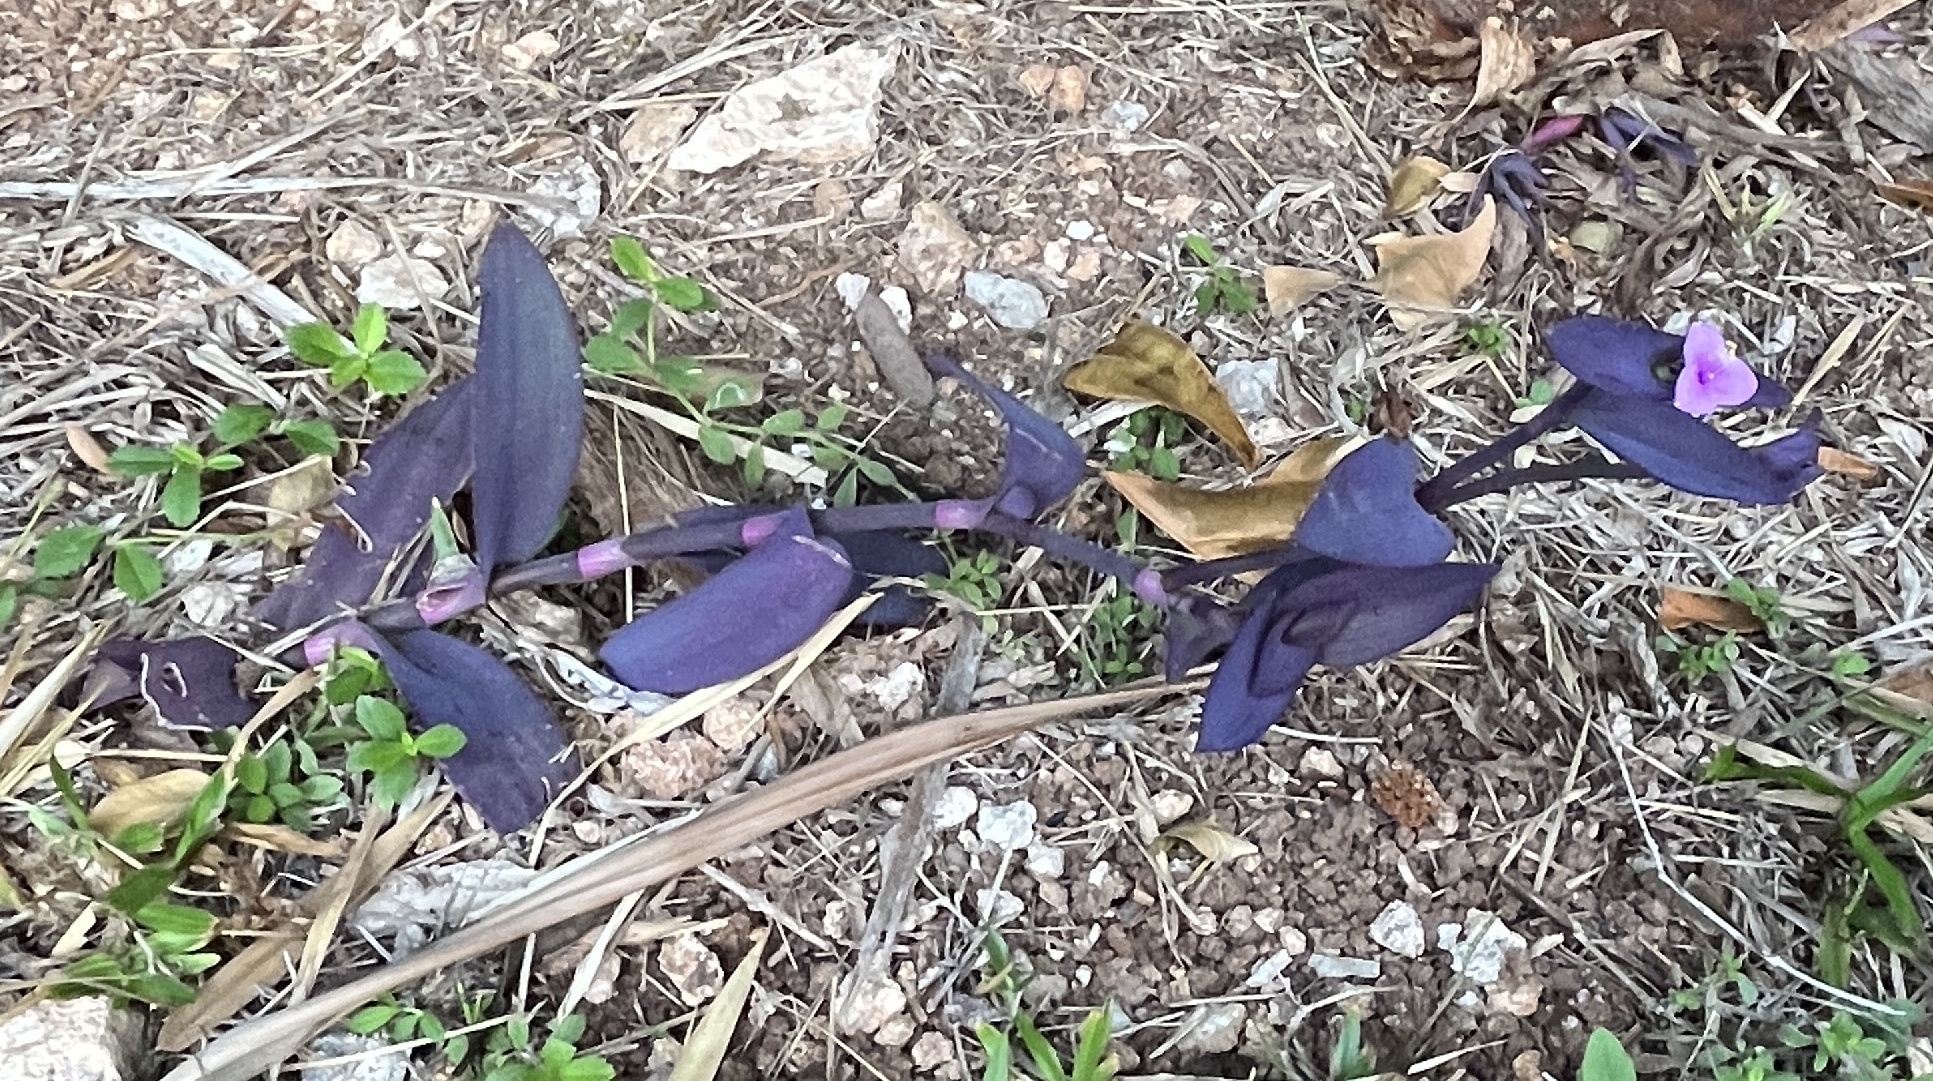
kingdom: Plantae
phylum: Tracheophyta
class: Liliopsida
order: Commelinales
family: Commelinaceae
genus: Tradescantia
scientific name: Tradescantia pallida
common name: Purpleheart
